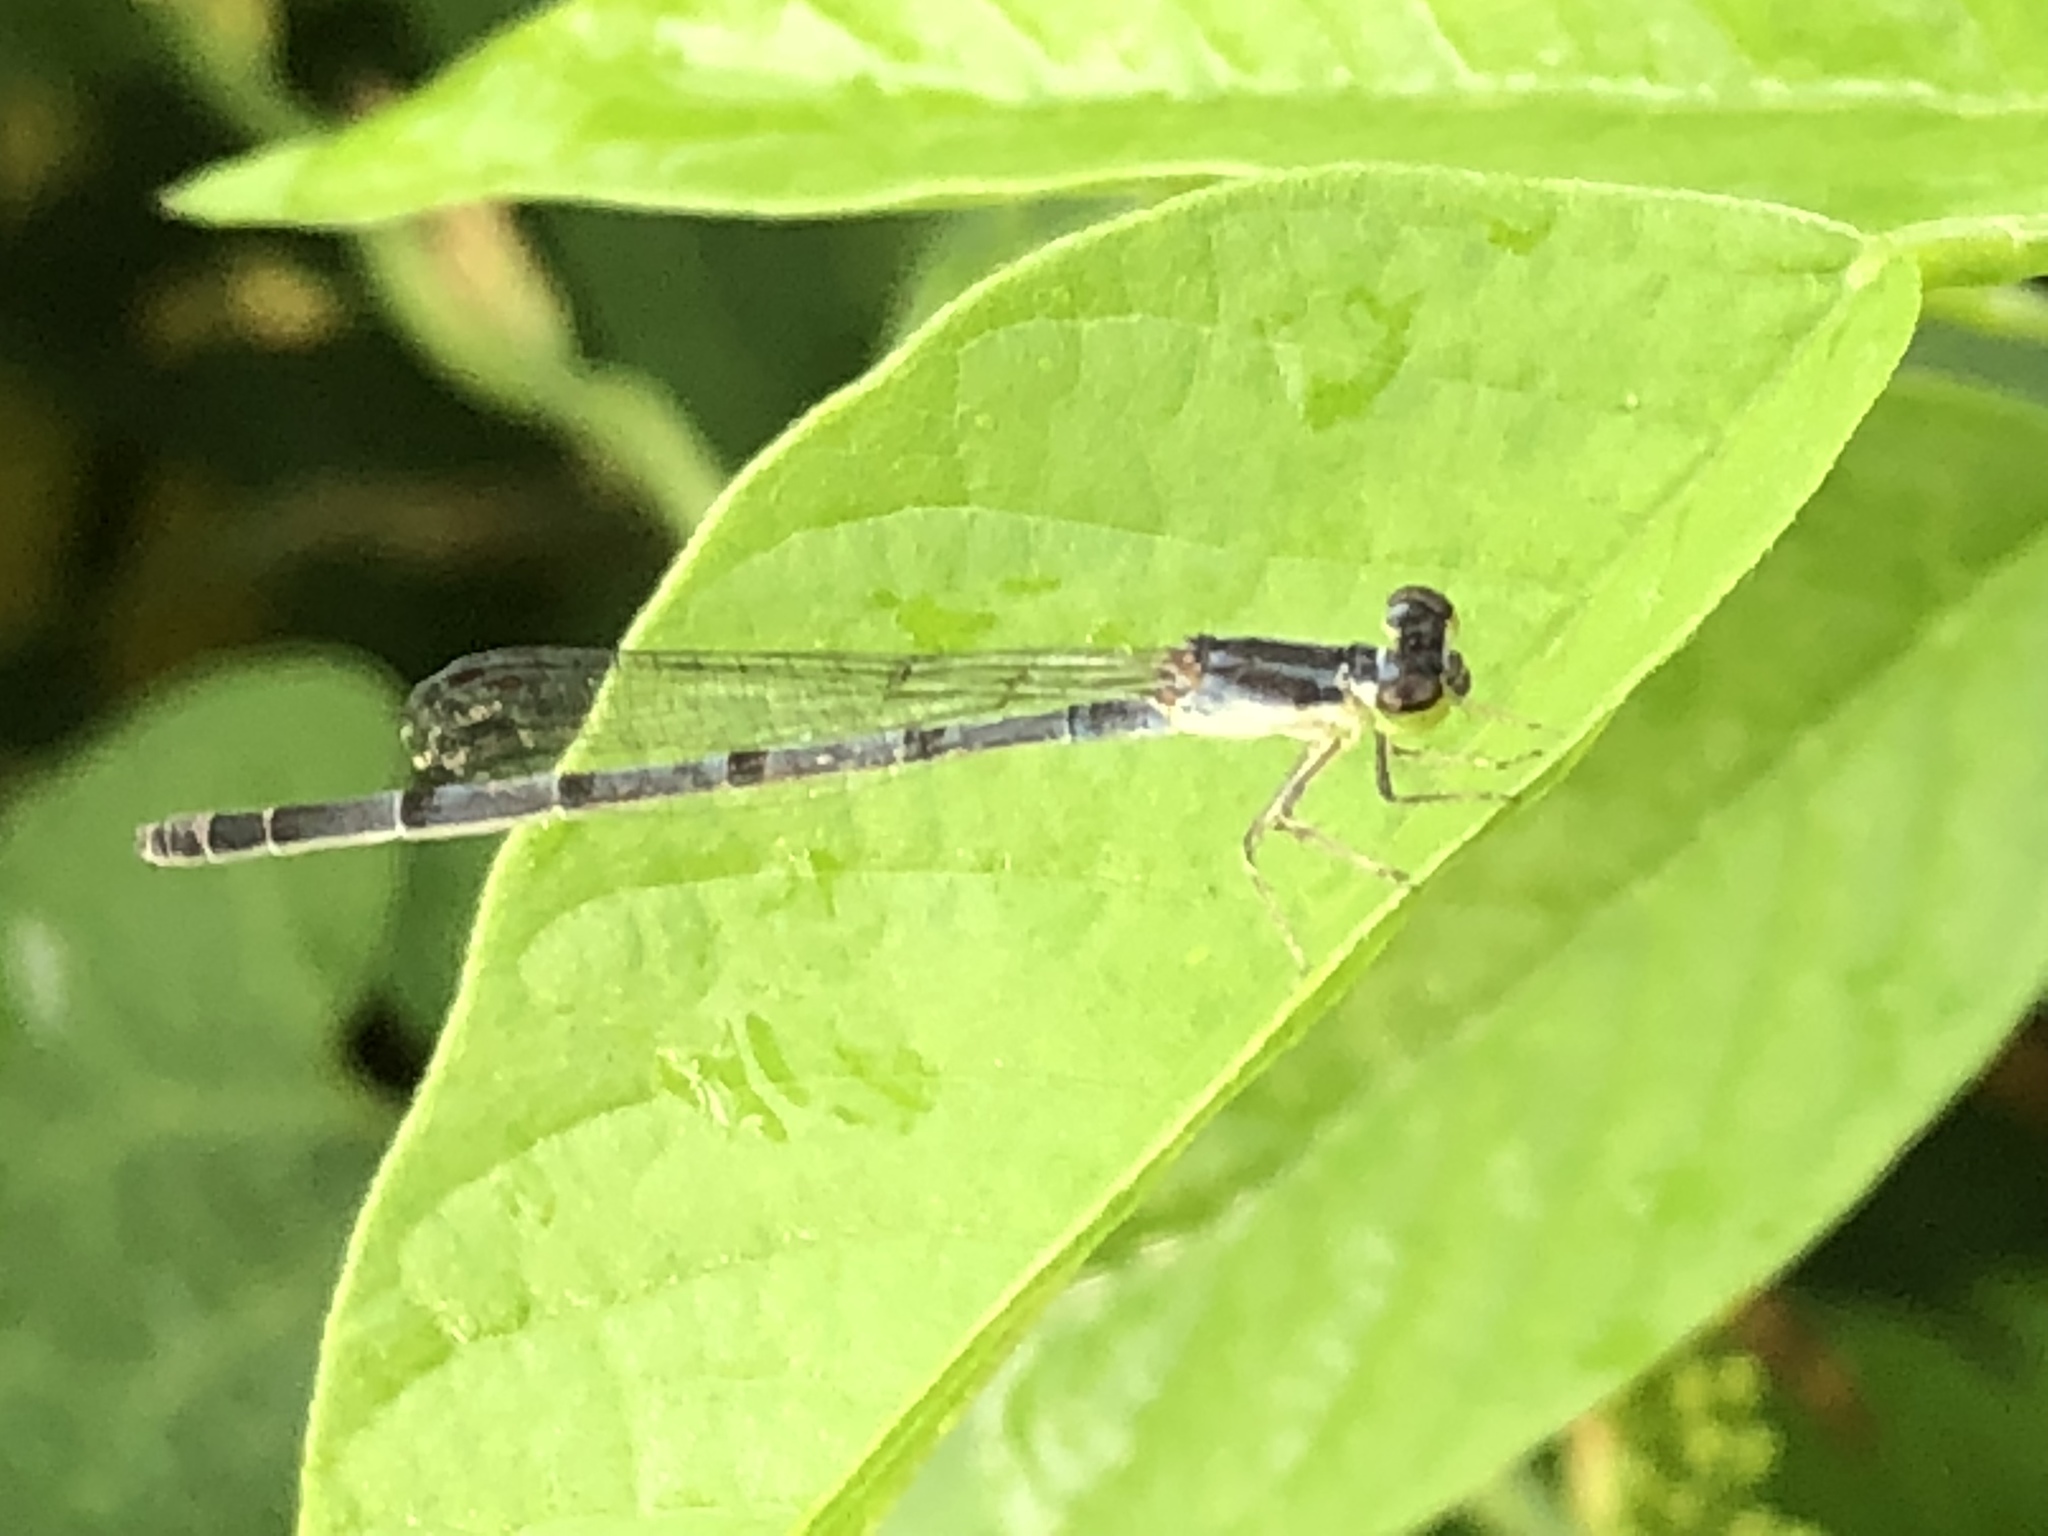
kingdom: Animalia
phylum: Arthropoda
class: Insecta
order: Odonata
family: Coenagrionidae
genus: Ischnura
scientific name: Ischnura posita
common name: Fragile forktail
